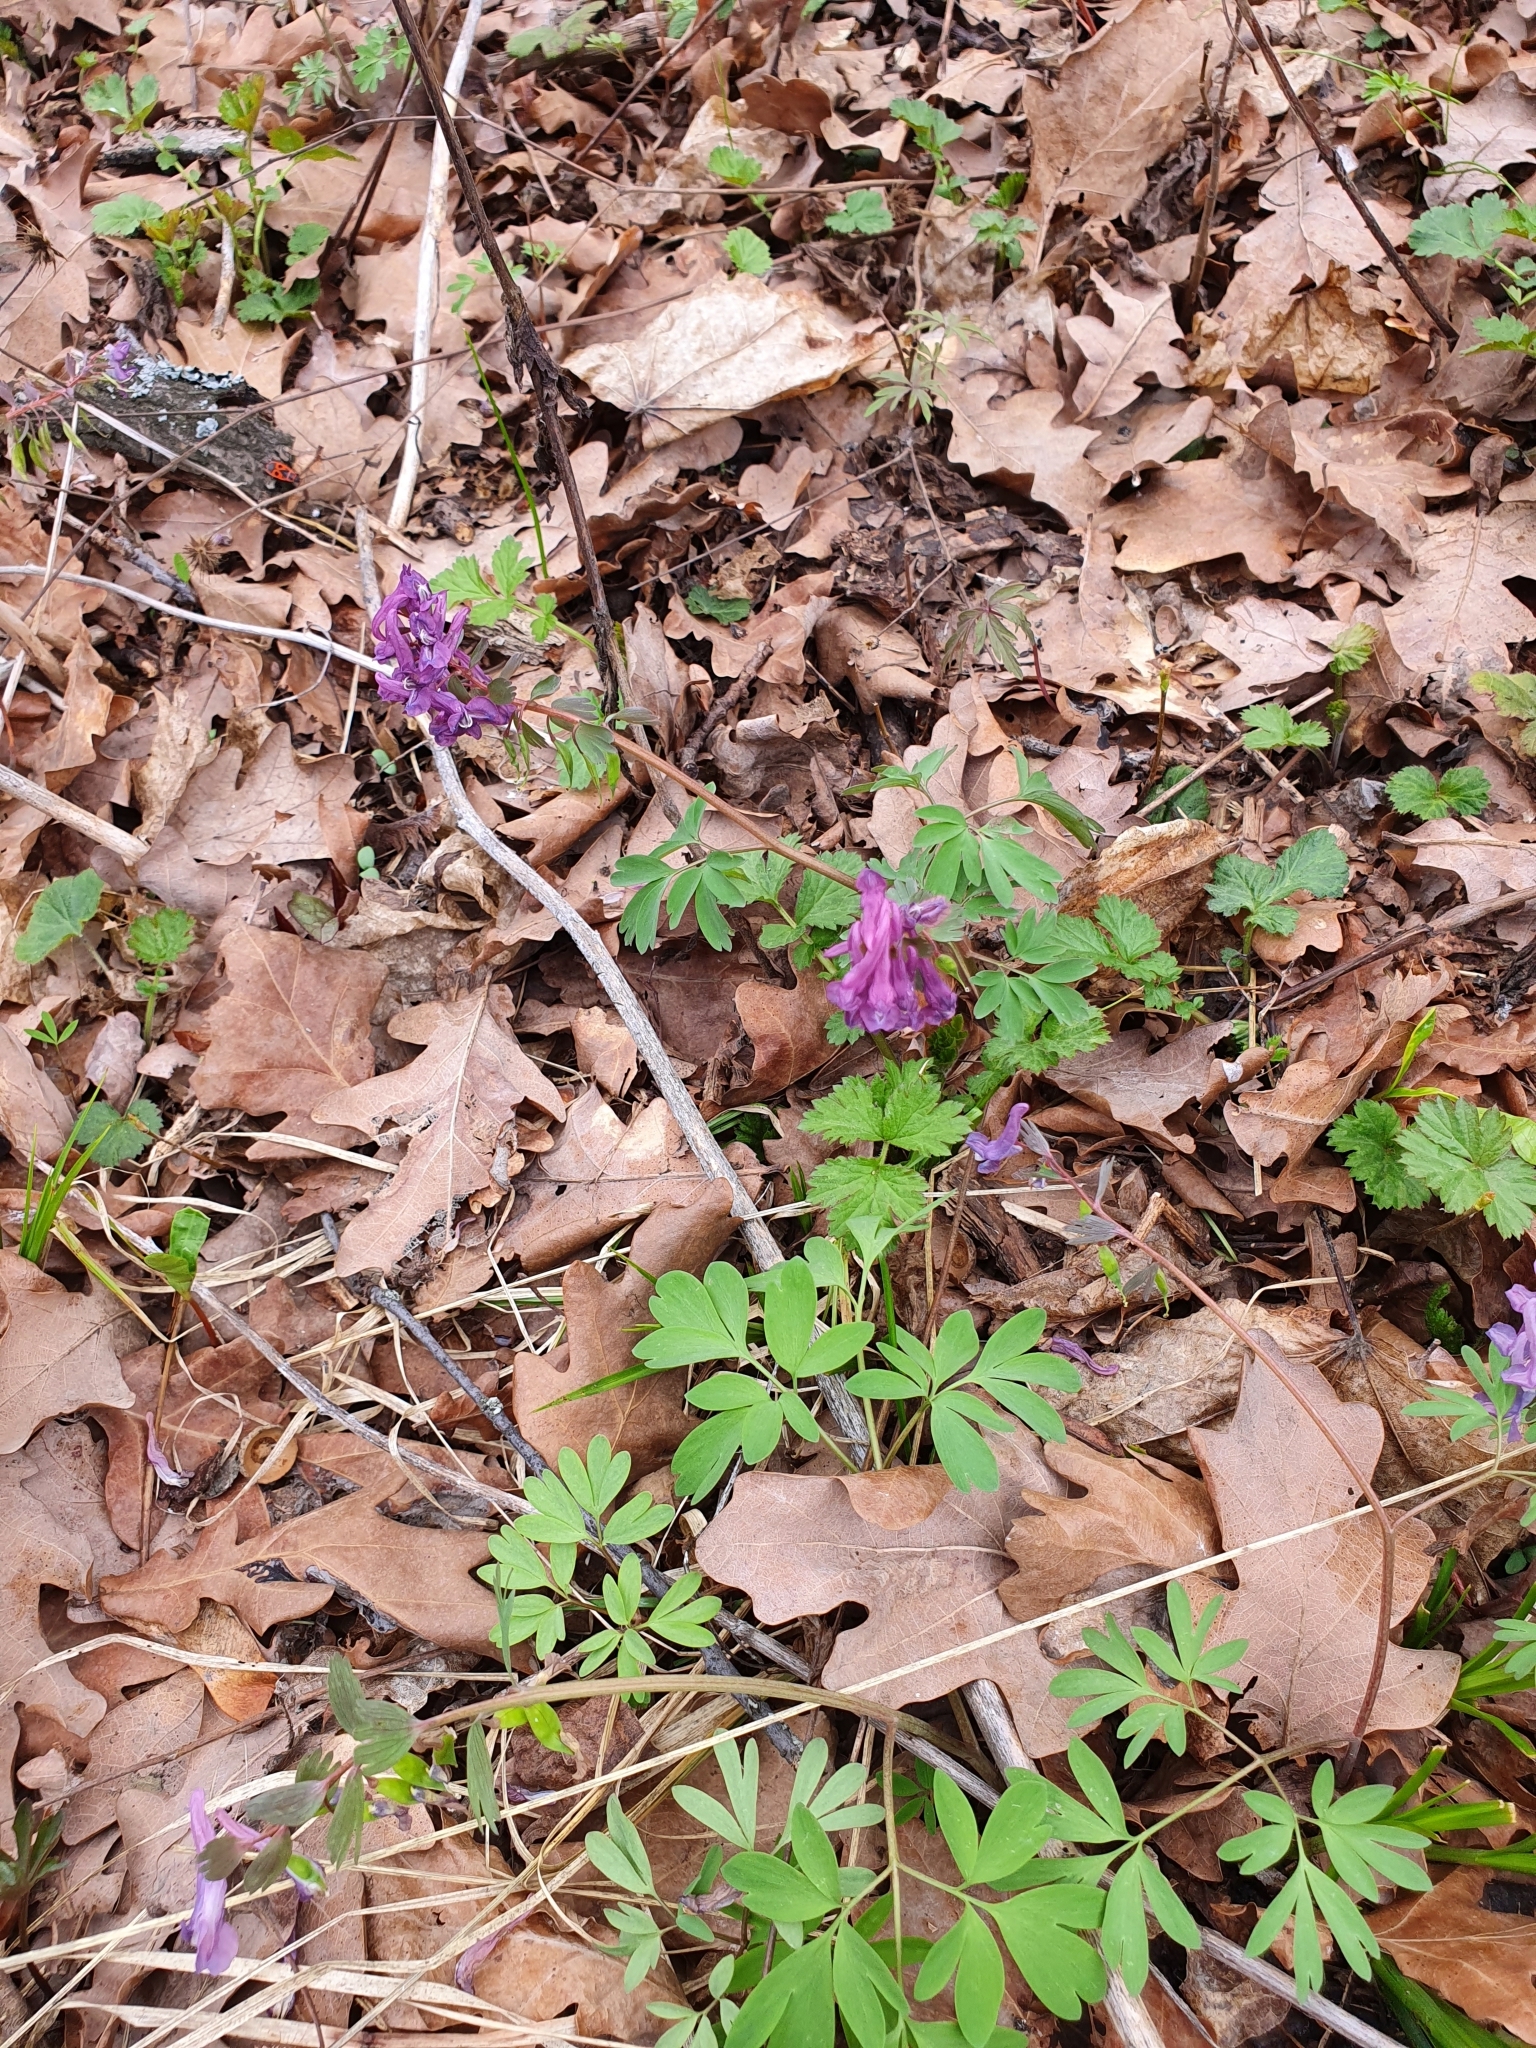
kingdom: Plantae
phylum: Tracheophyta
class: Magnoliopsida
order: Ranunculales
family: Papaveraceae
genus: Corydalis
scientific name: Corydalis solida
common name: Bird-in-a-bush
